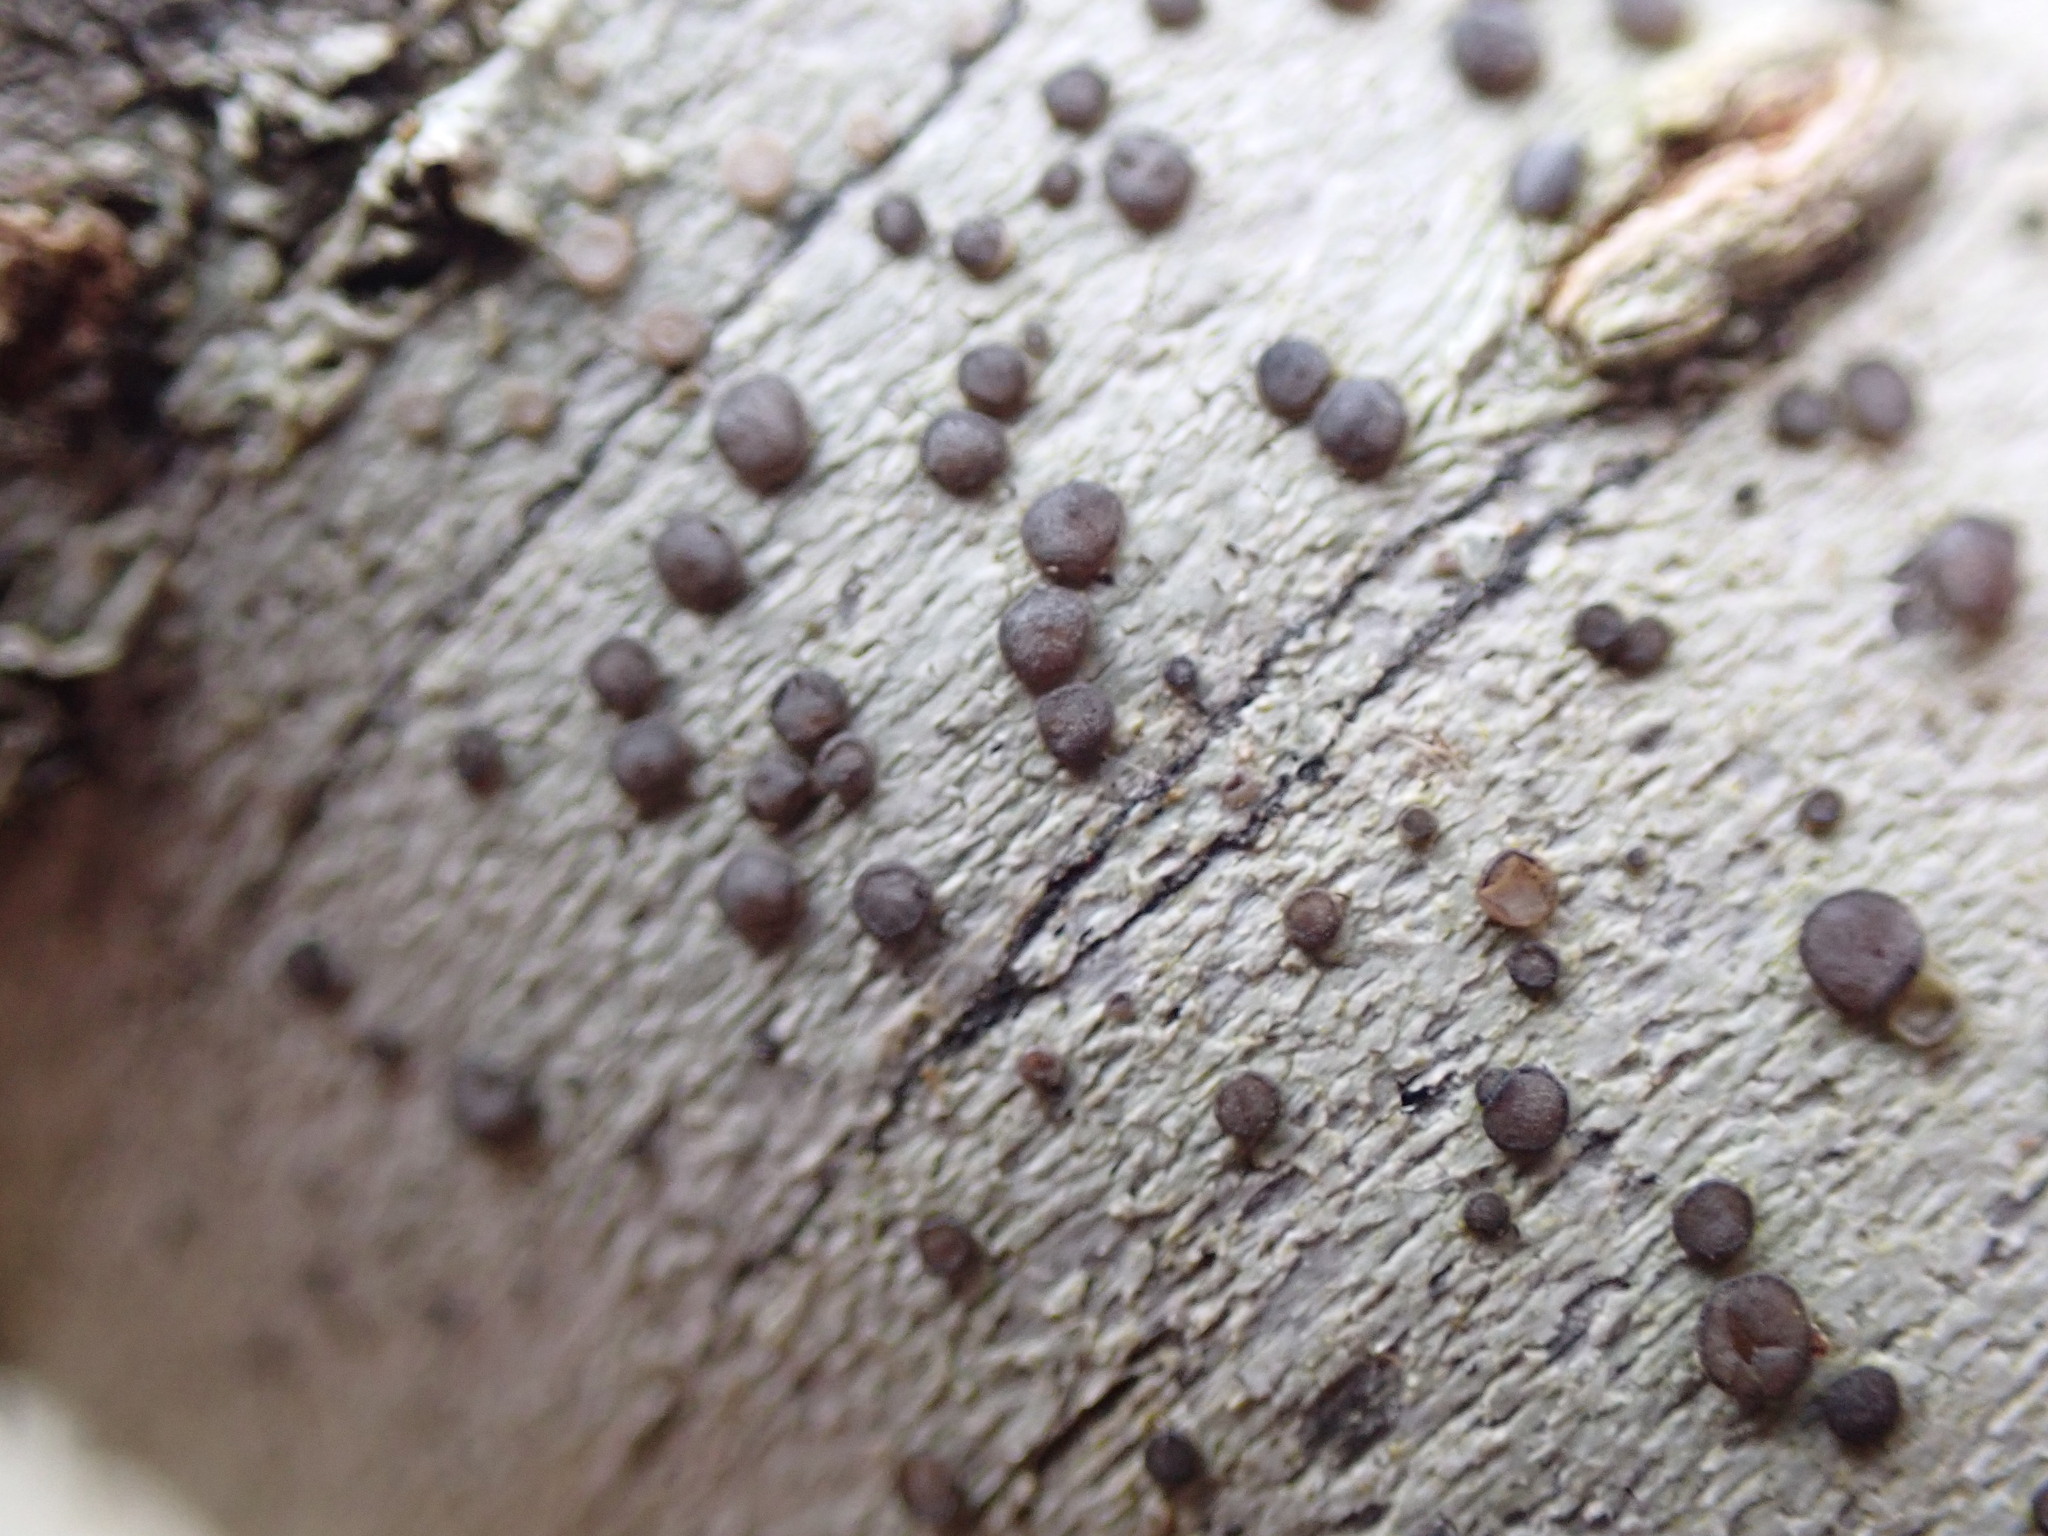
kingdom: Fungi
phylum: Ascomycota
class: Lecanoromycetes
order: Lecanorales
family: Ramalinaceae
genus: Cliostomum
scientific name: Cliostomum griffithii
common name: Multicolored dot lichen
